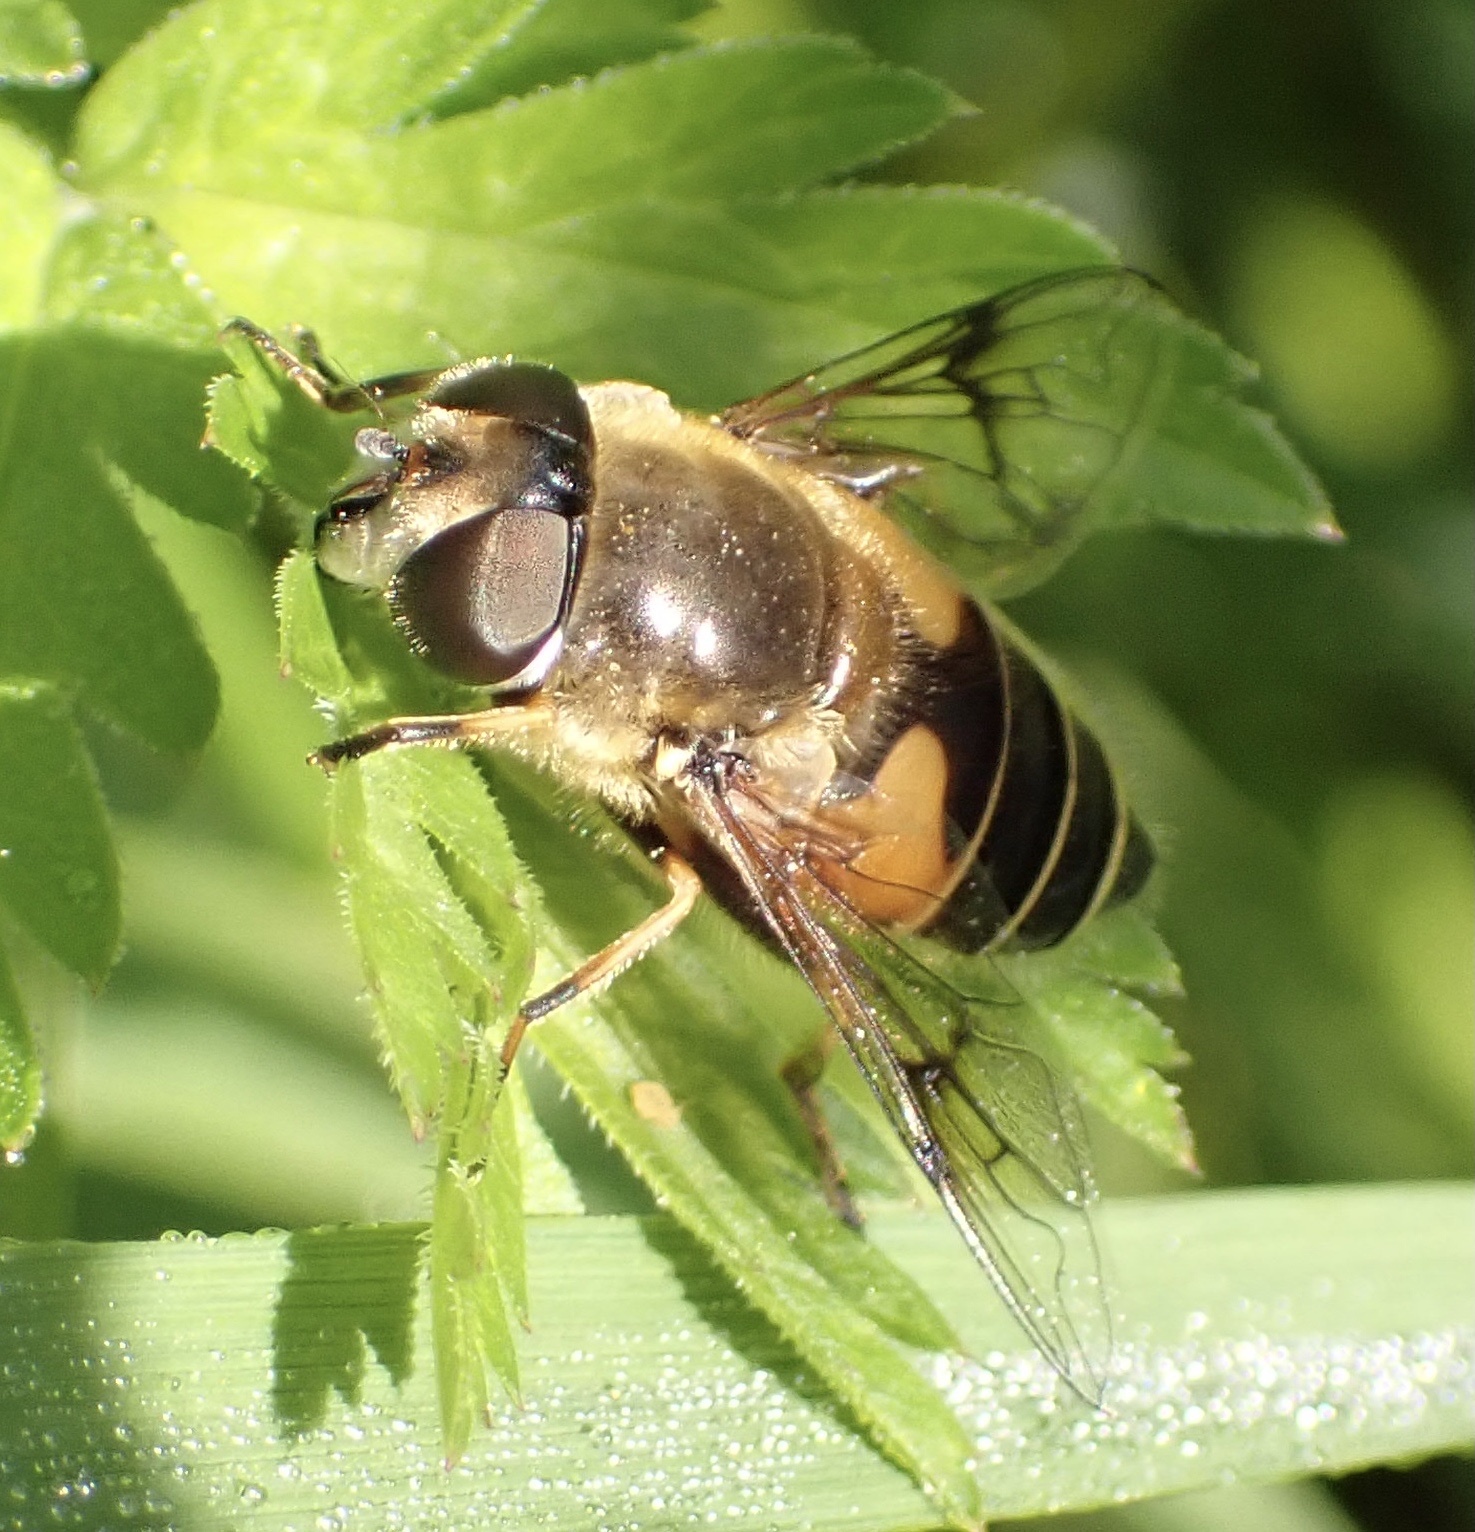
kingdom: Animalia
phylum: Arthropoda
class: Insecta
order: Diptera
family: Syrphidae
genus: Cheilosia
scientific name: Cheilosia morio
